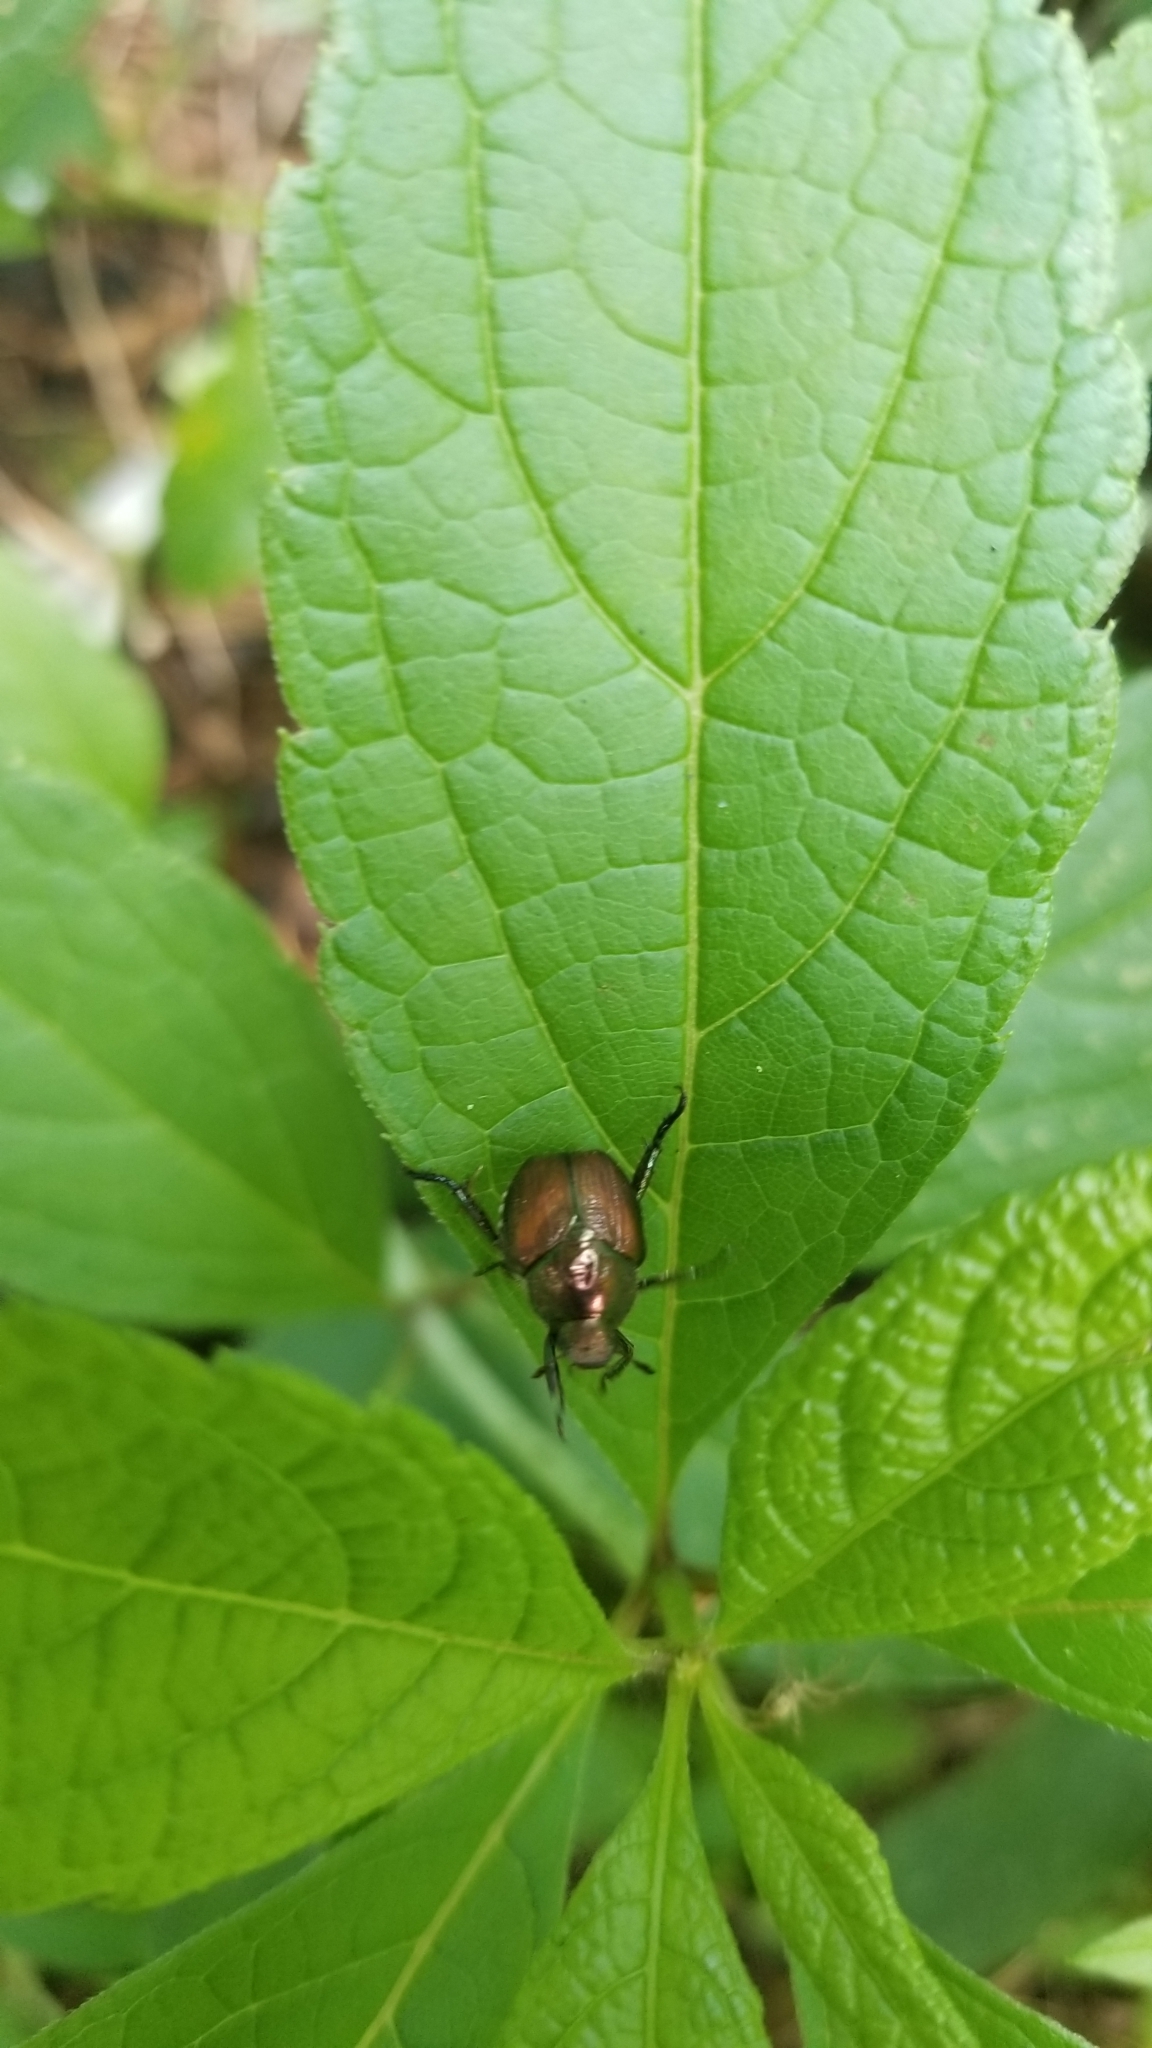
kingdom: Animalia
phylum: Arthropoda
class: Insecta
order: Coleoptera
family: Scarabaeidae
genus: Popillia
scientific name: Popillia japonica
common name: Japanese beetle
